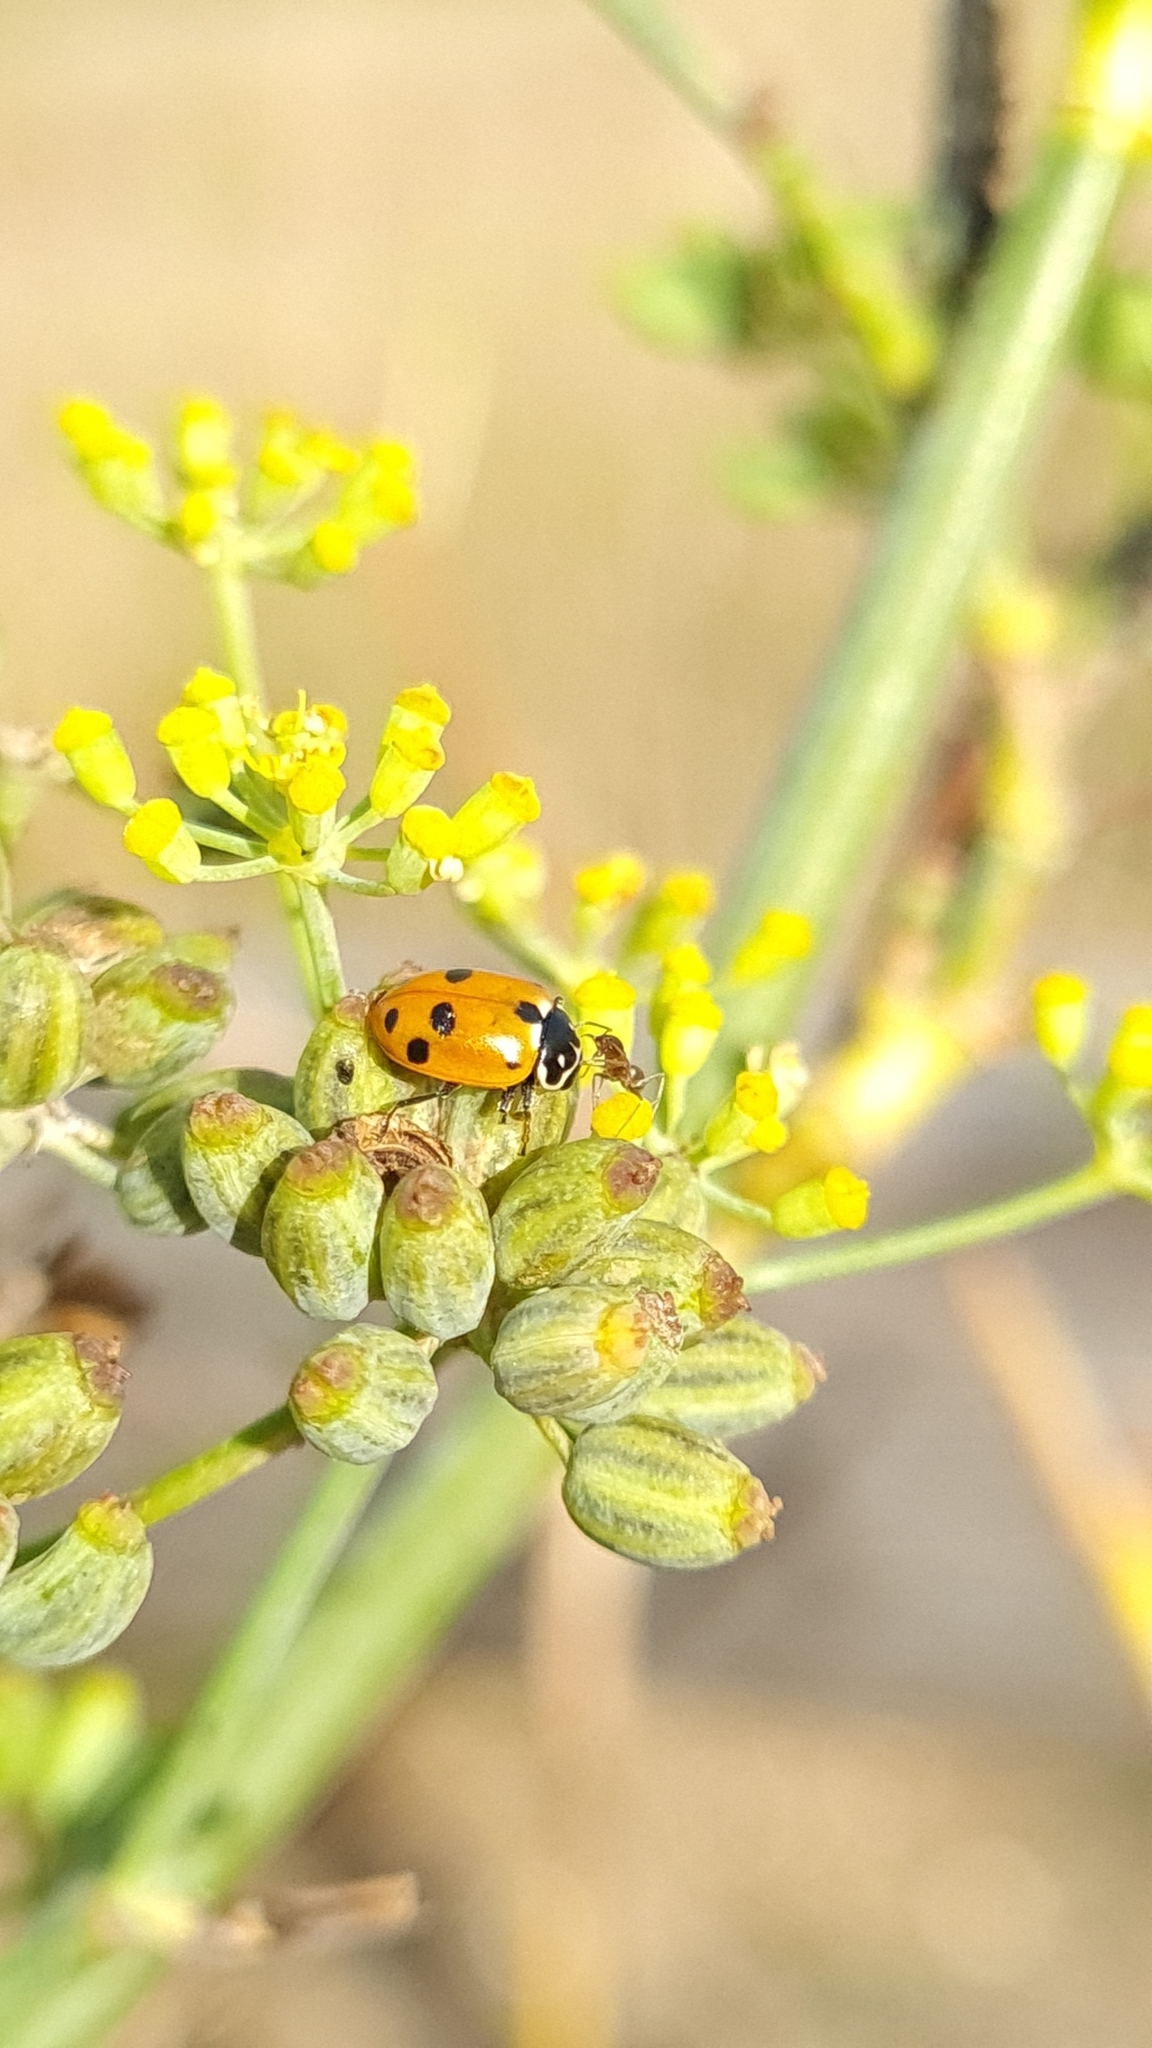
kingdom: Animalia
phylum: Arthropoda
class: Insecta
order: Coleoptera
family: Coccinellidae
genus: Hippodamia
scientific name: Hippodamia variegata
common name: Ladybird beetle
